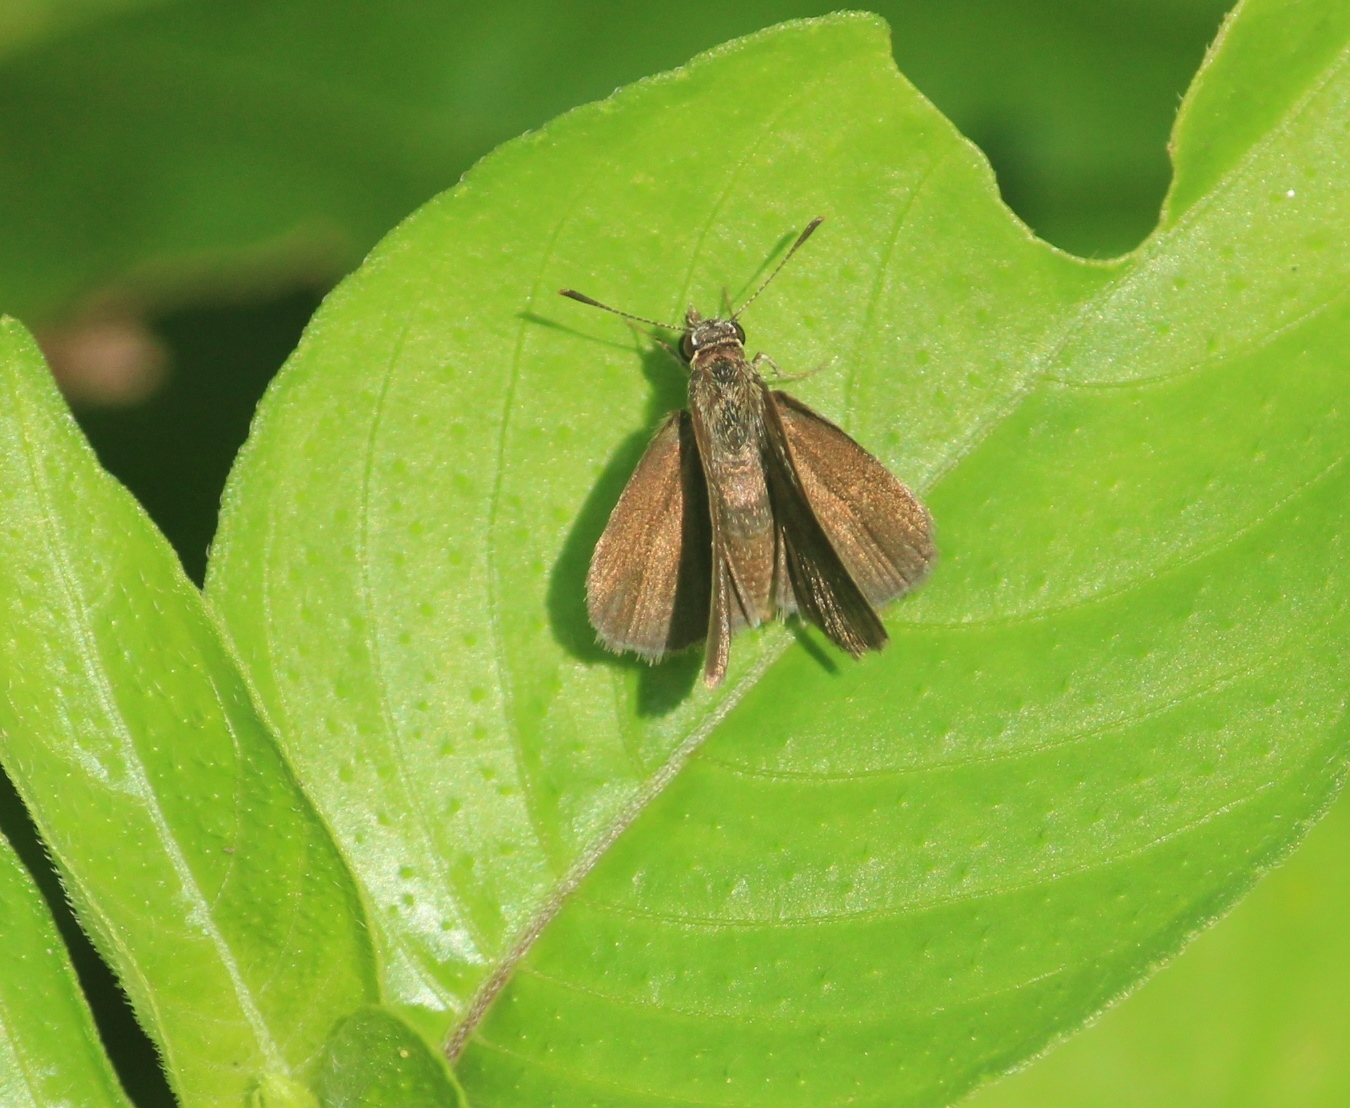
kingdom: Animalia
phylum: Arthropoda
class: Insecta
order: Lepidoptera
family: Hesperiidae
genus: Aeromachus
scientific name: Aeromachus pygmaeus
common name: Pygmy scrub hopper
